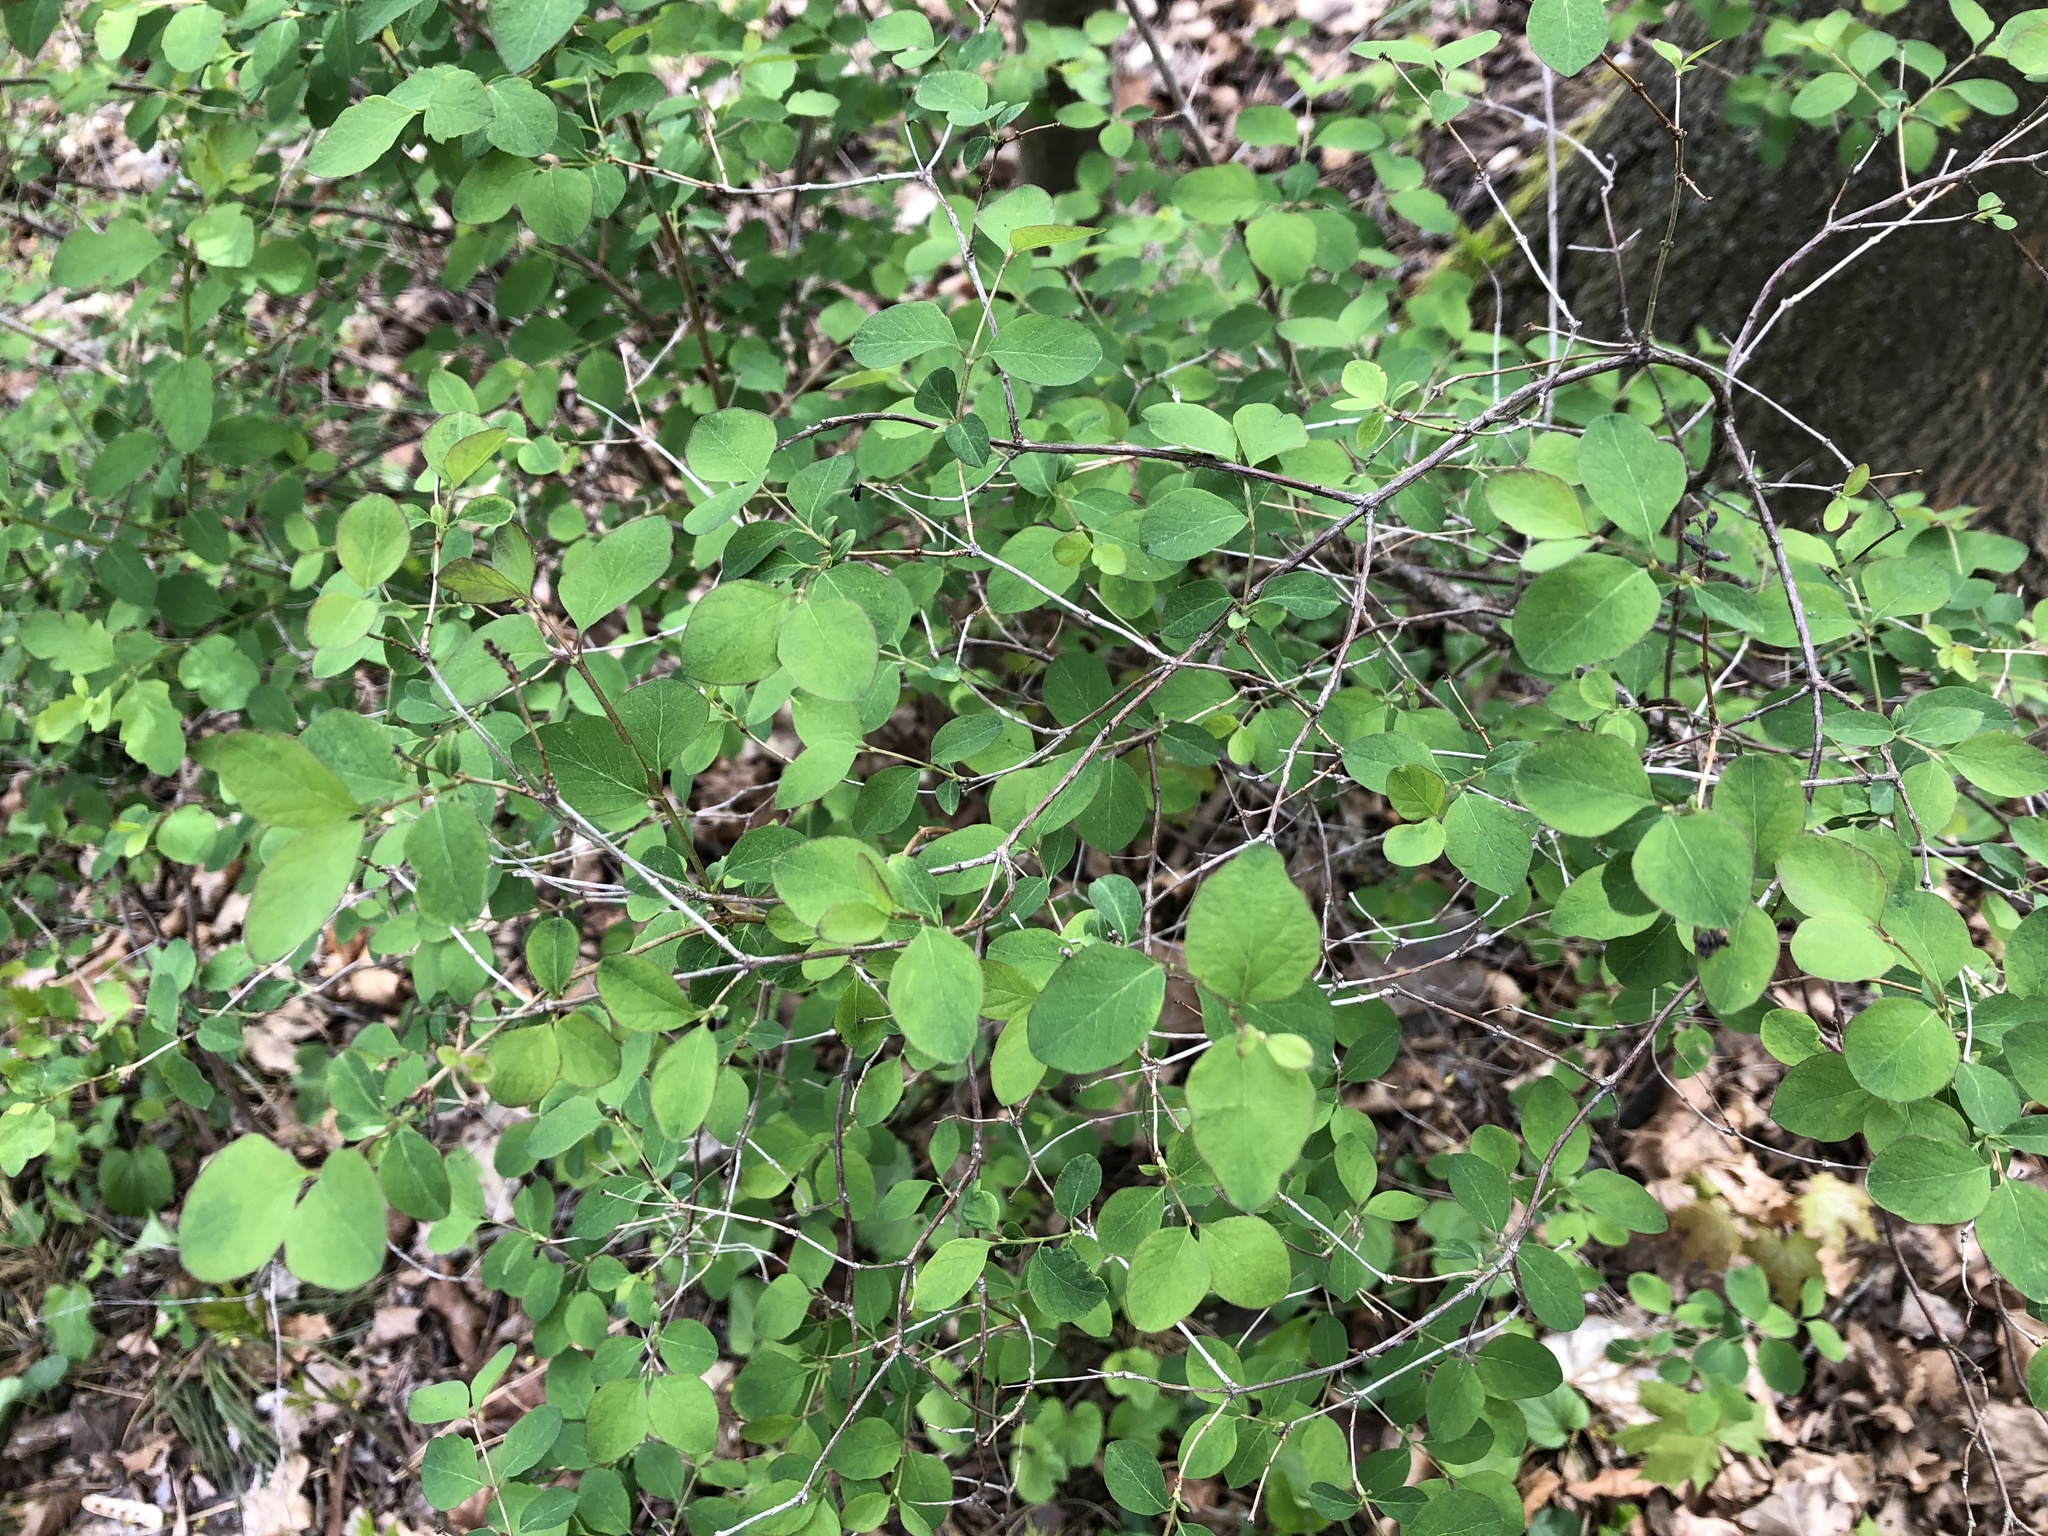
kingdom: Plantae
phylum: Tracheophyta
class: Magnoliopsida
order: Dipsacales
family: Caprifoliaceae
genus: Symphoricarpos
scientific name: Symphoricarpos albus
